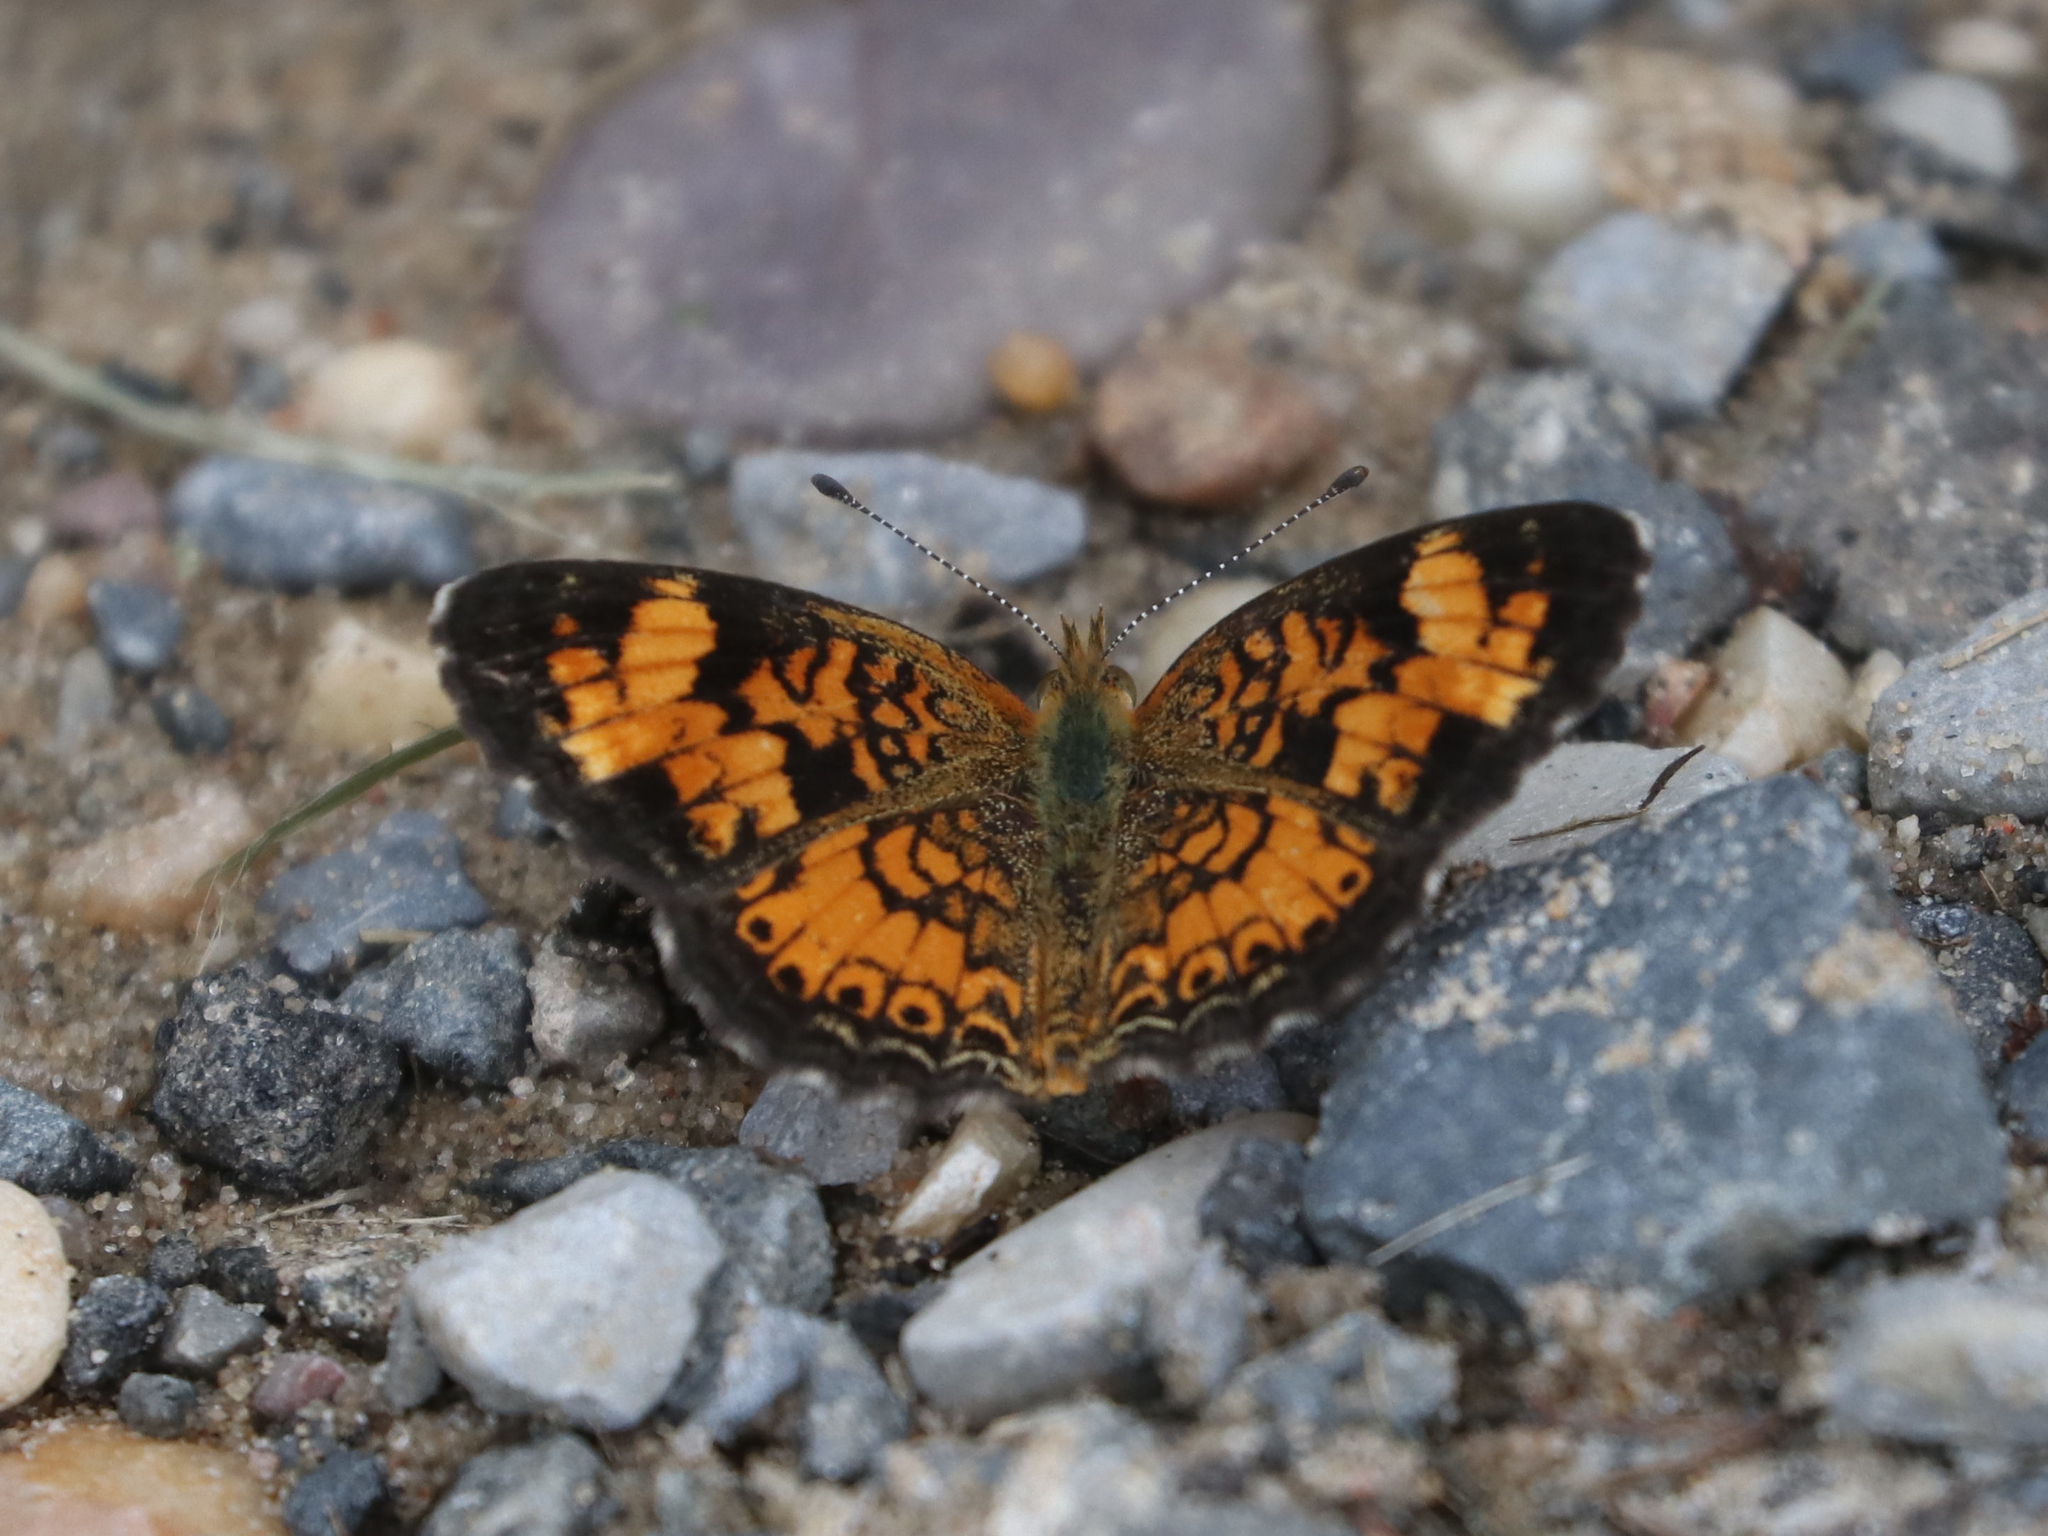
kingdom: Animalia
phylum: Arthropoda
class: Insecta
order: Lepidoptera
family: Nymphalidae
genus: Phyciodes
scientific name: Phyciodes tharos
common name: Pearl crescent
